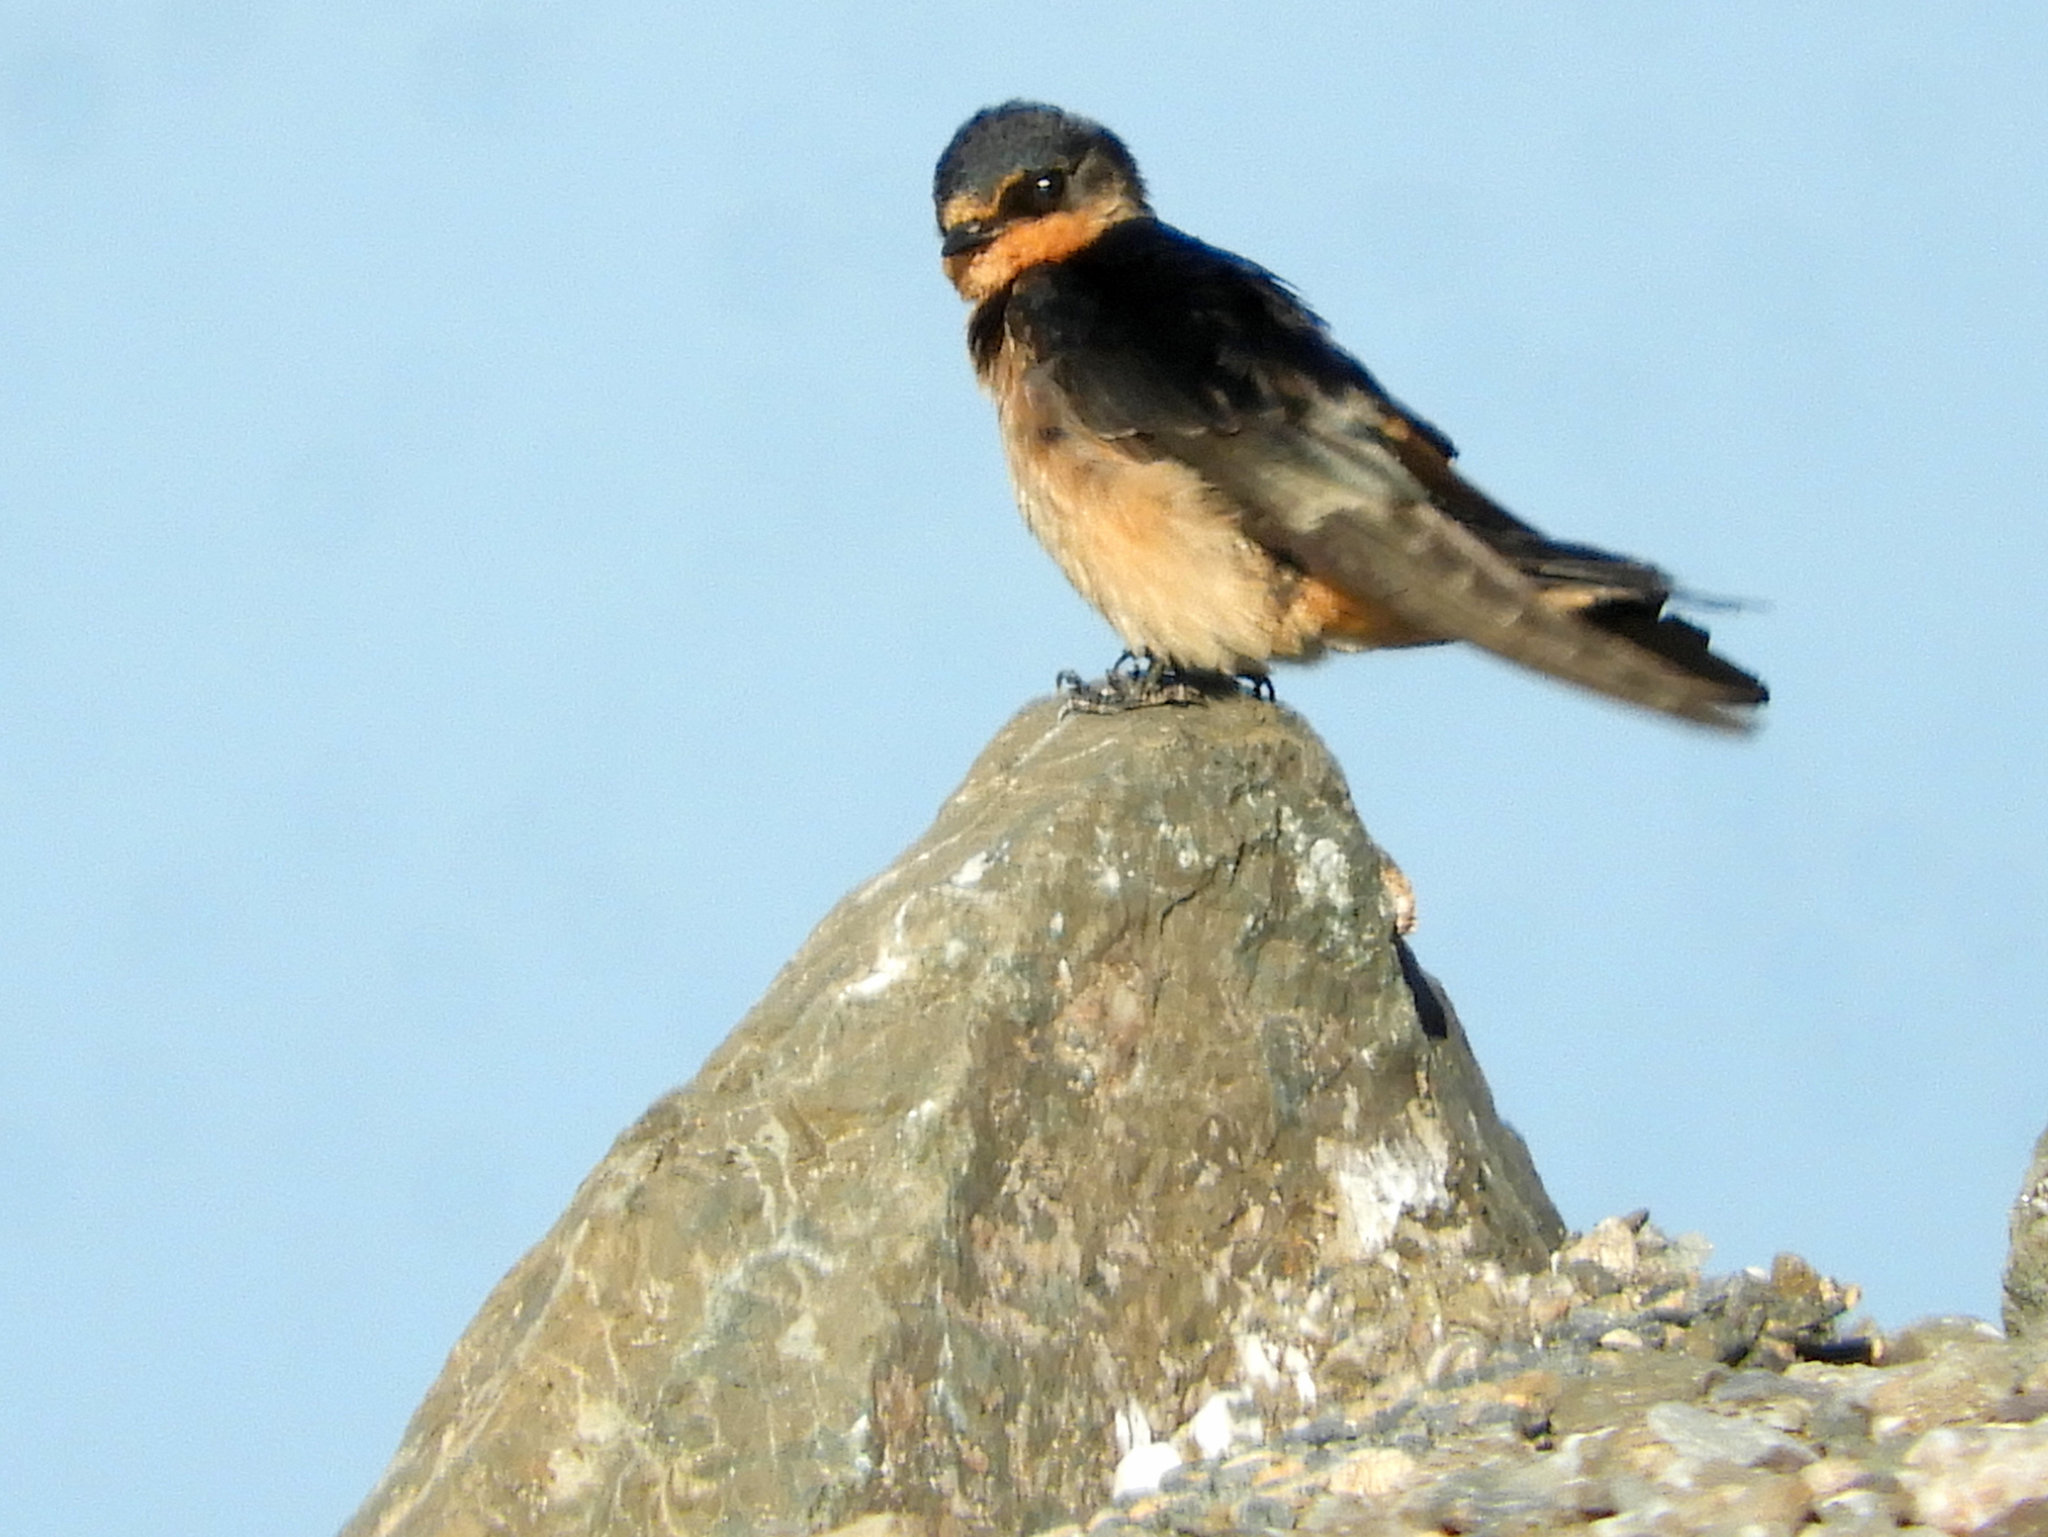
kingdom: Animalia
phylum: Chordata
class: Aves
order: Passeriformes
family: Hirundinidae
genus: Hirundo
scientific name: Hirundo rustica
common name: Barn swallow
